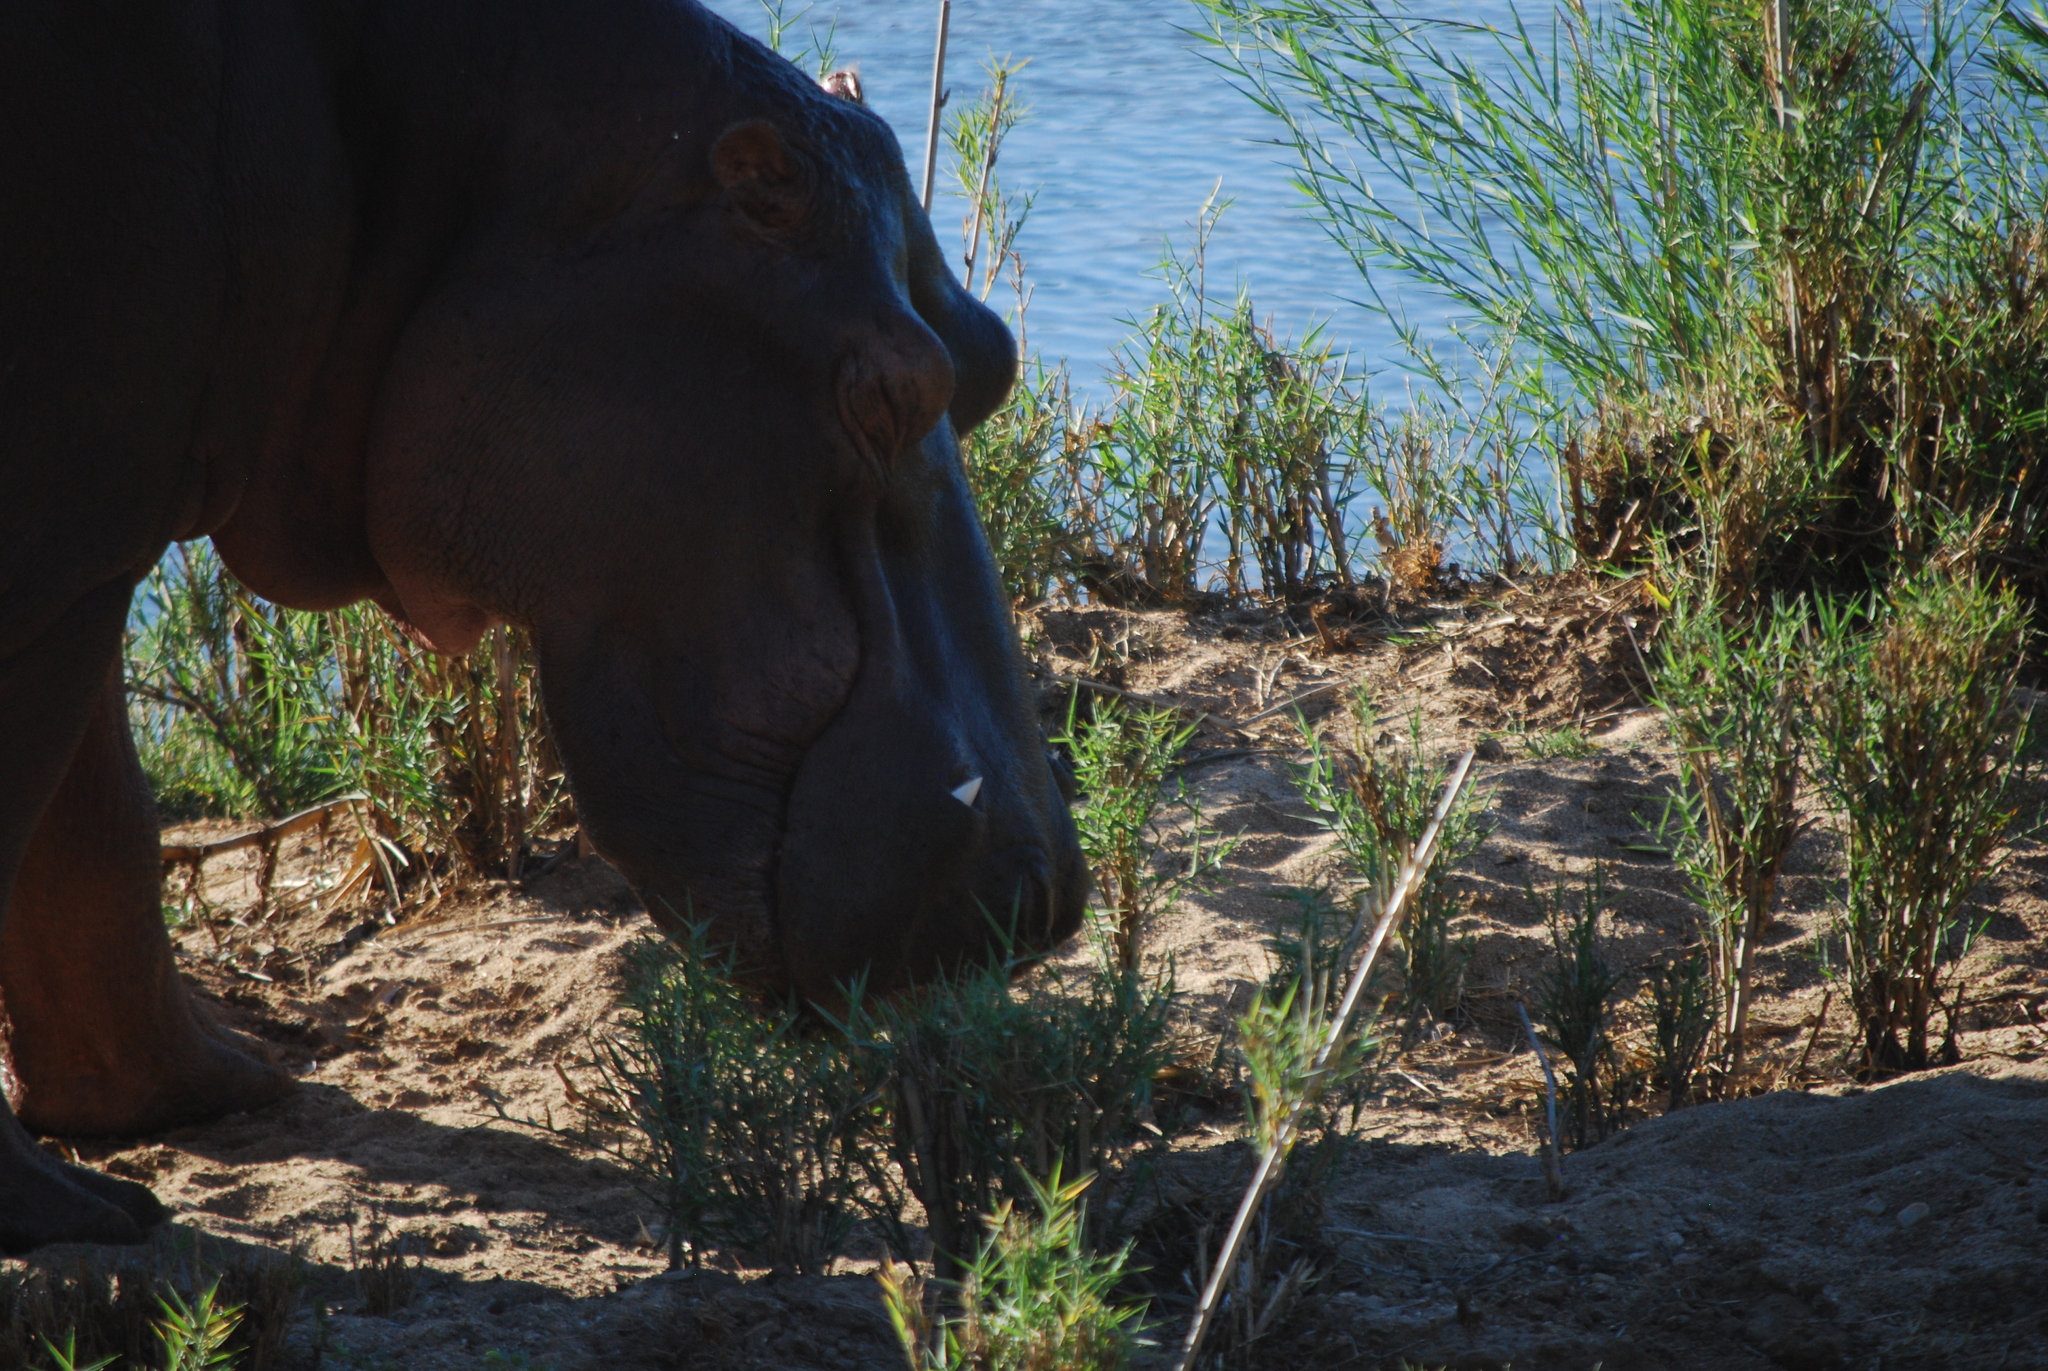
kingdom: Animalia
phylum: Chordata
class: Mammalia
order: Artiodactyla
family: Hippopotamidae
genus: Hippopotamus
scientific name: Hippopotamus amphibius
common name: Common hippopotamus
